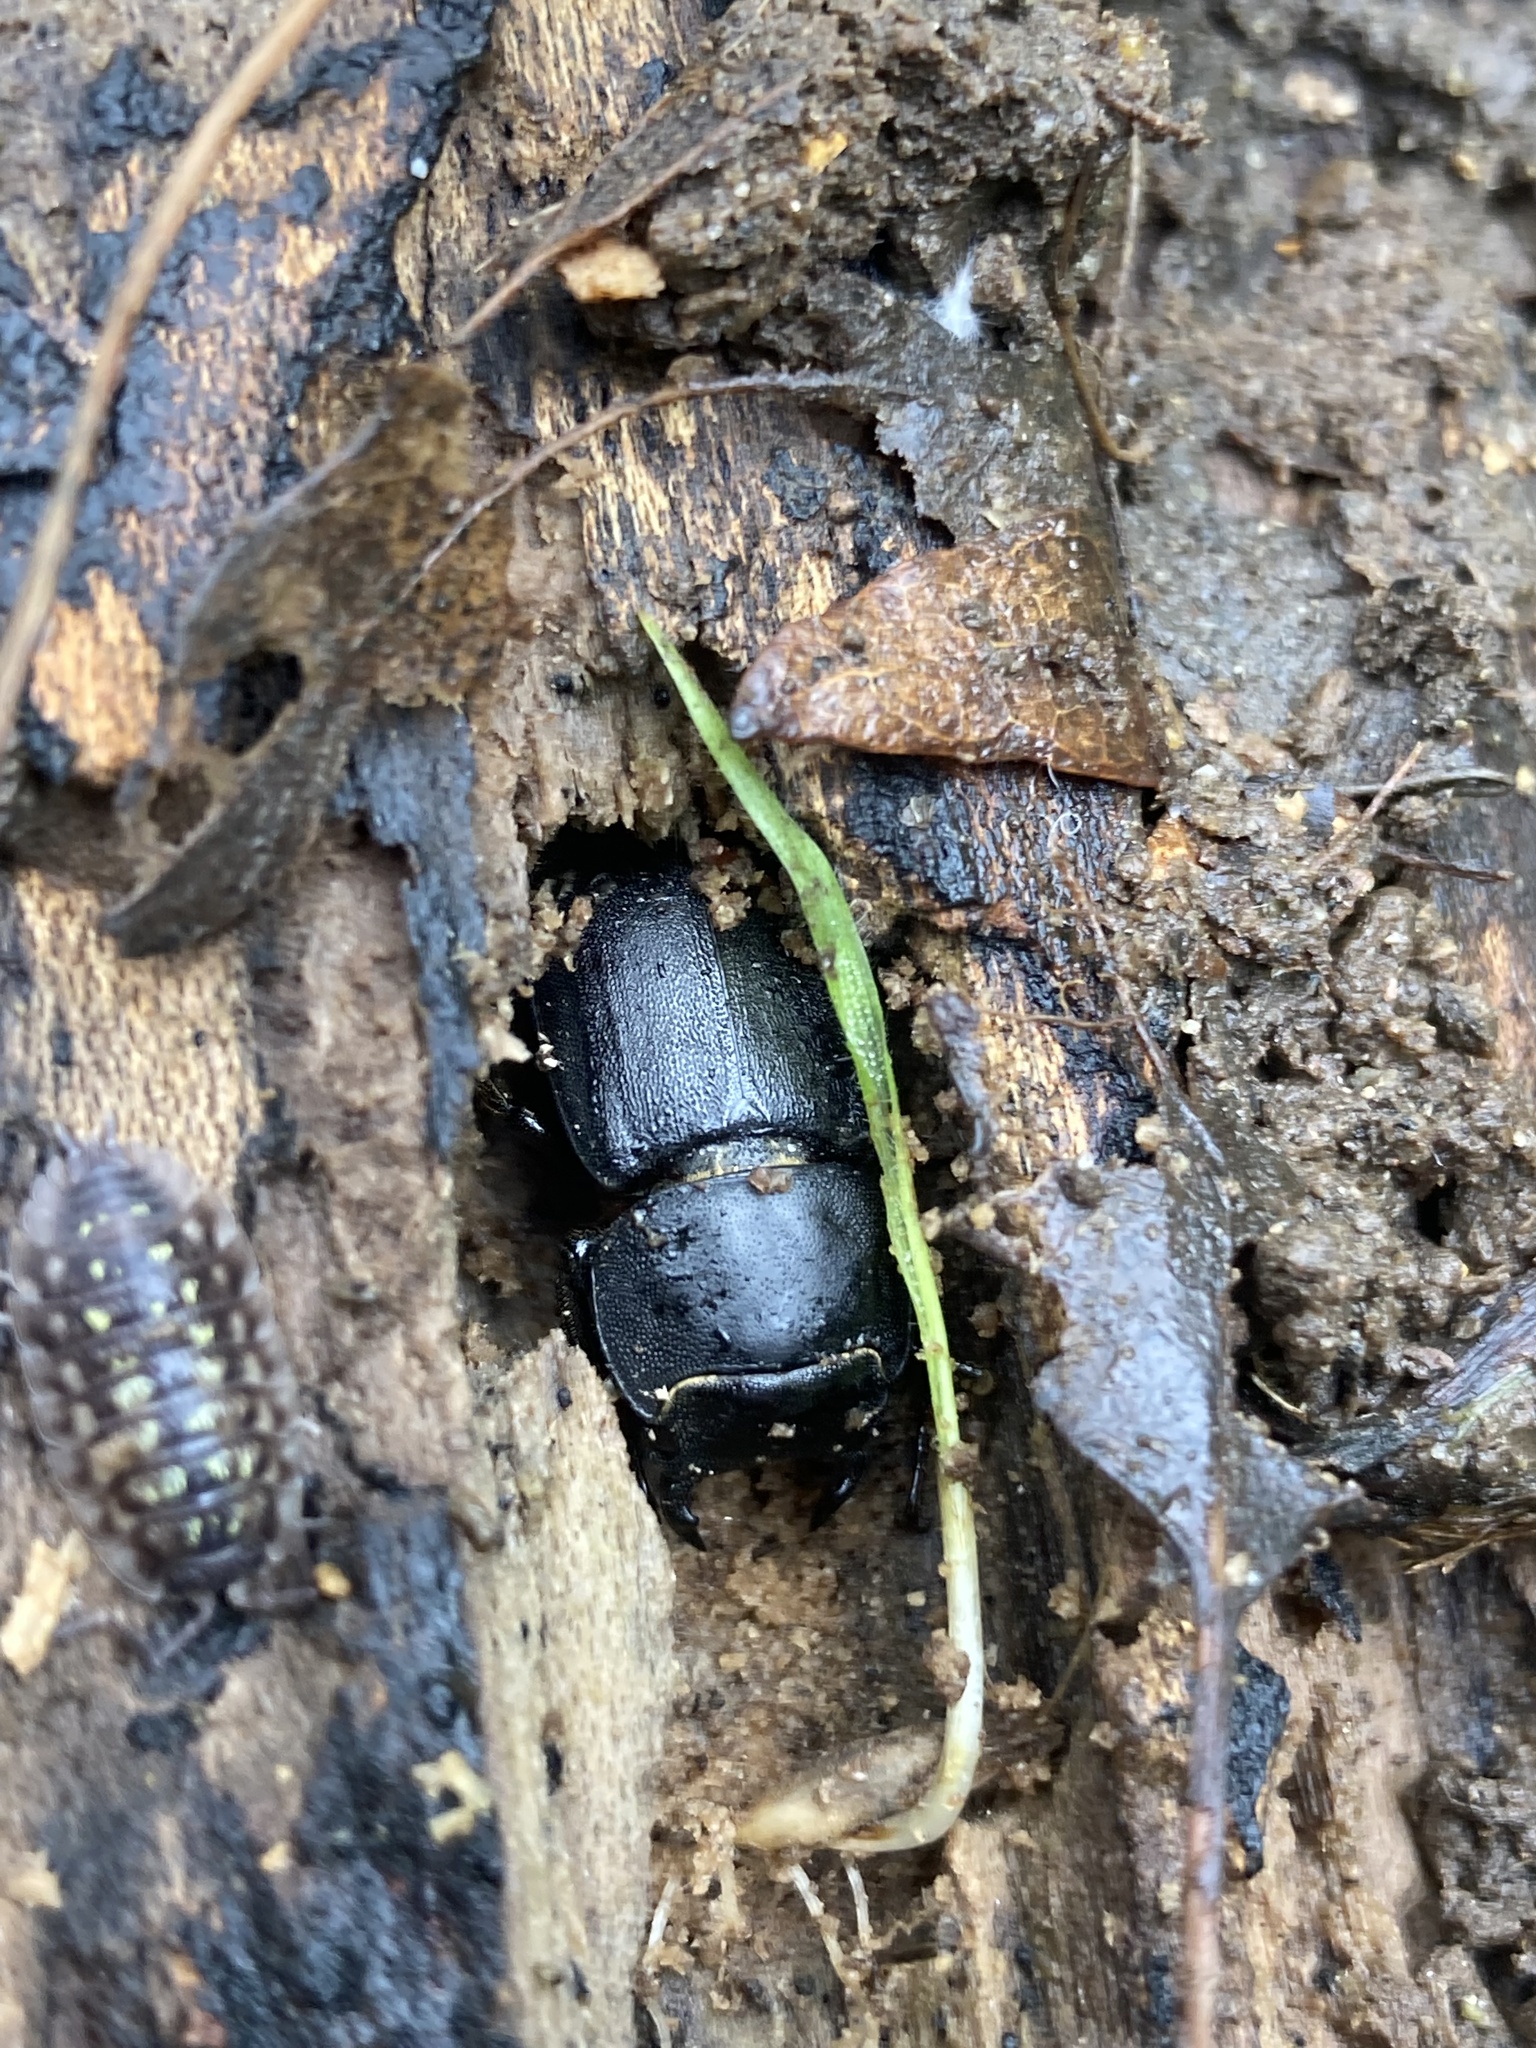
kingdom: Animalia
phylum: Arthropoda
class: Insecta
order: Coleoptera
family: Lucanidae
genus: Dorcus
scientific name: Dorcus parallelipipedus
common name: Lesser stag beetle
